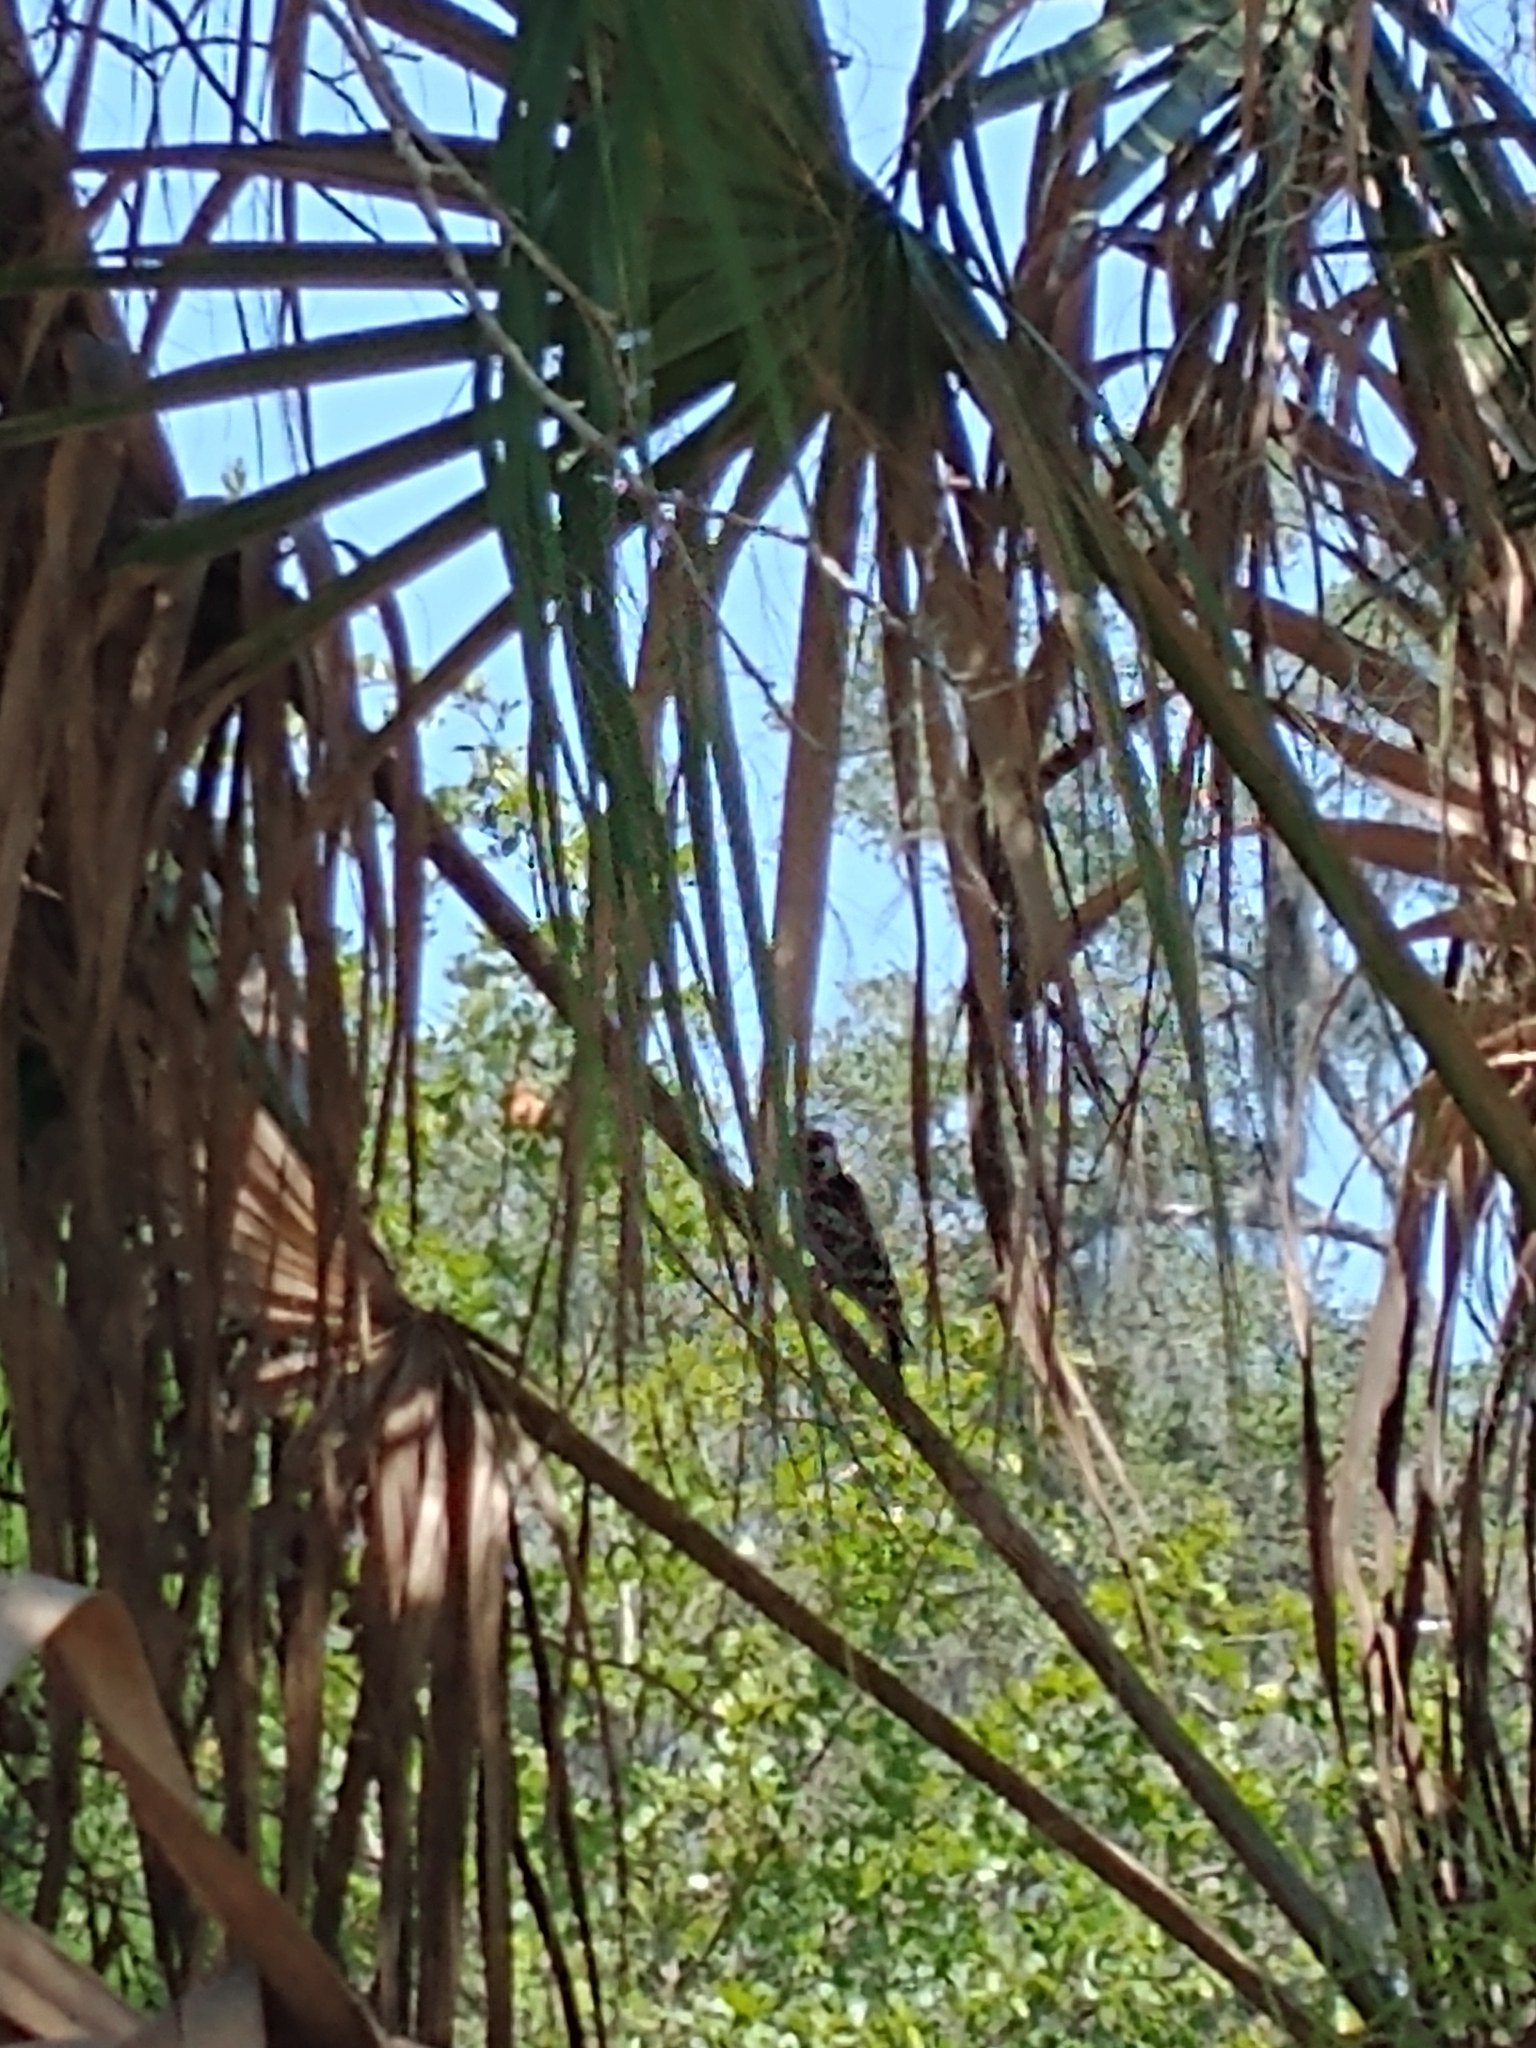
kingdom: Animalia
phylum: Chordata
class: Aves
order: Piciformes
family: Picidae
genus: Dryobates
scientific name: Dryobates pubescens
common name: Downy woodpecker
